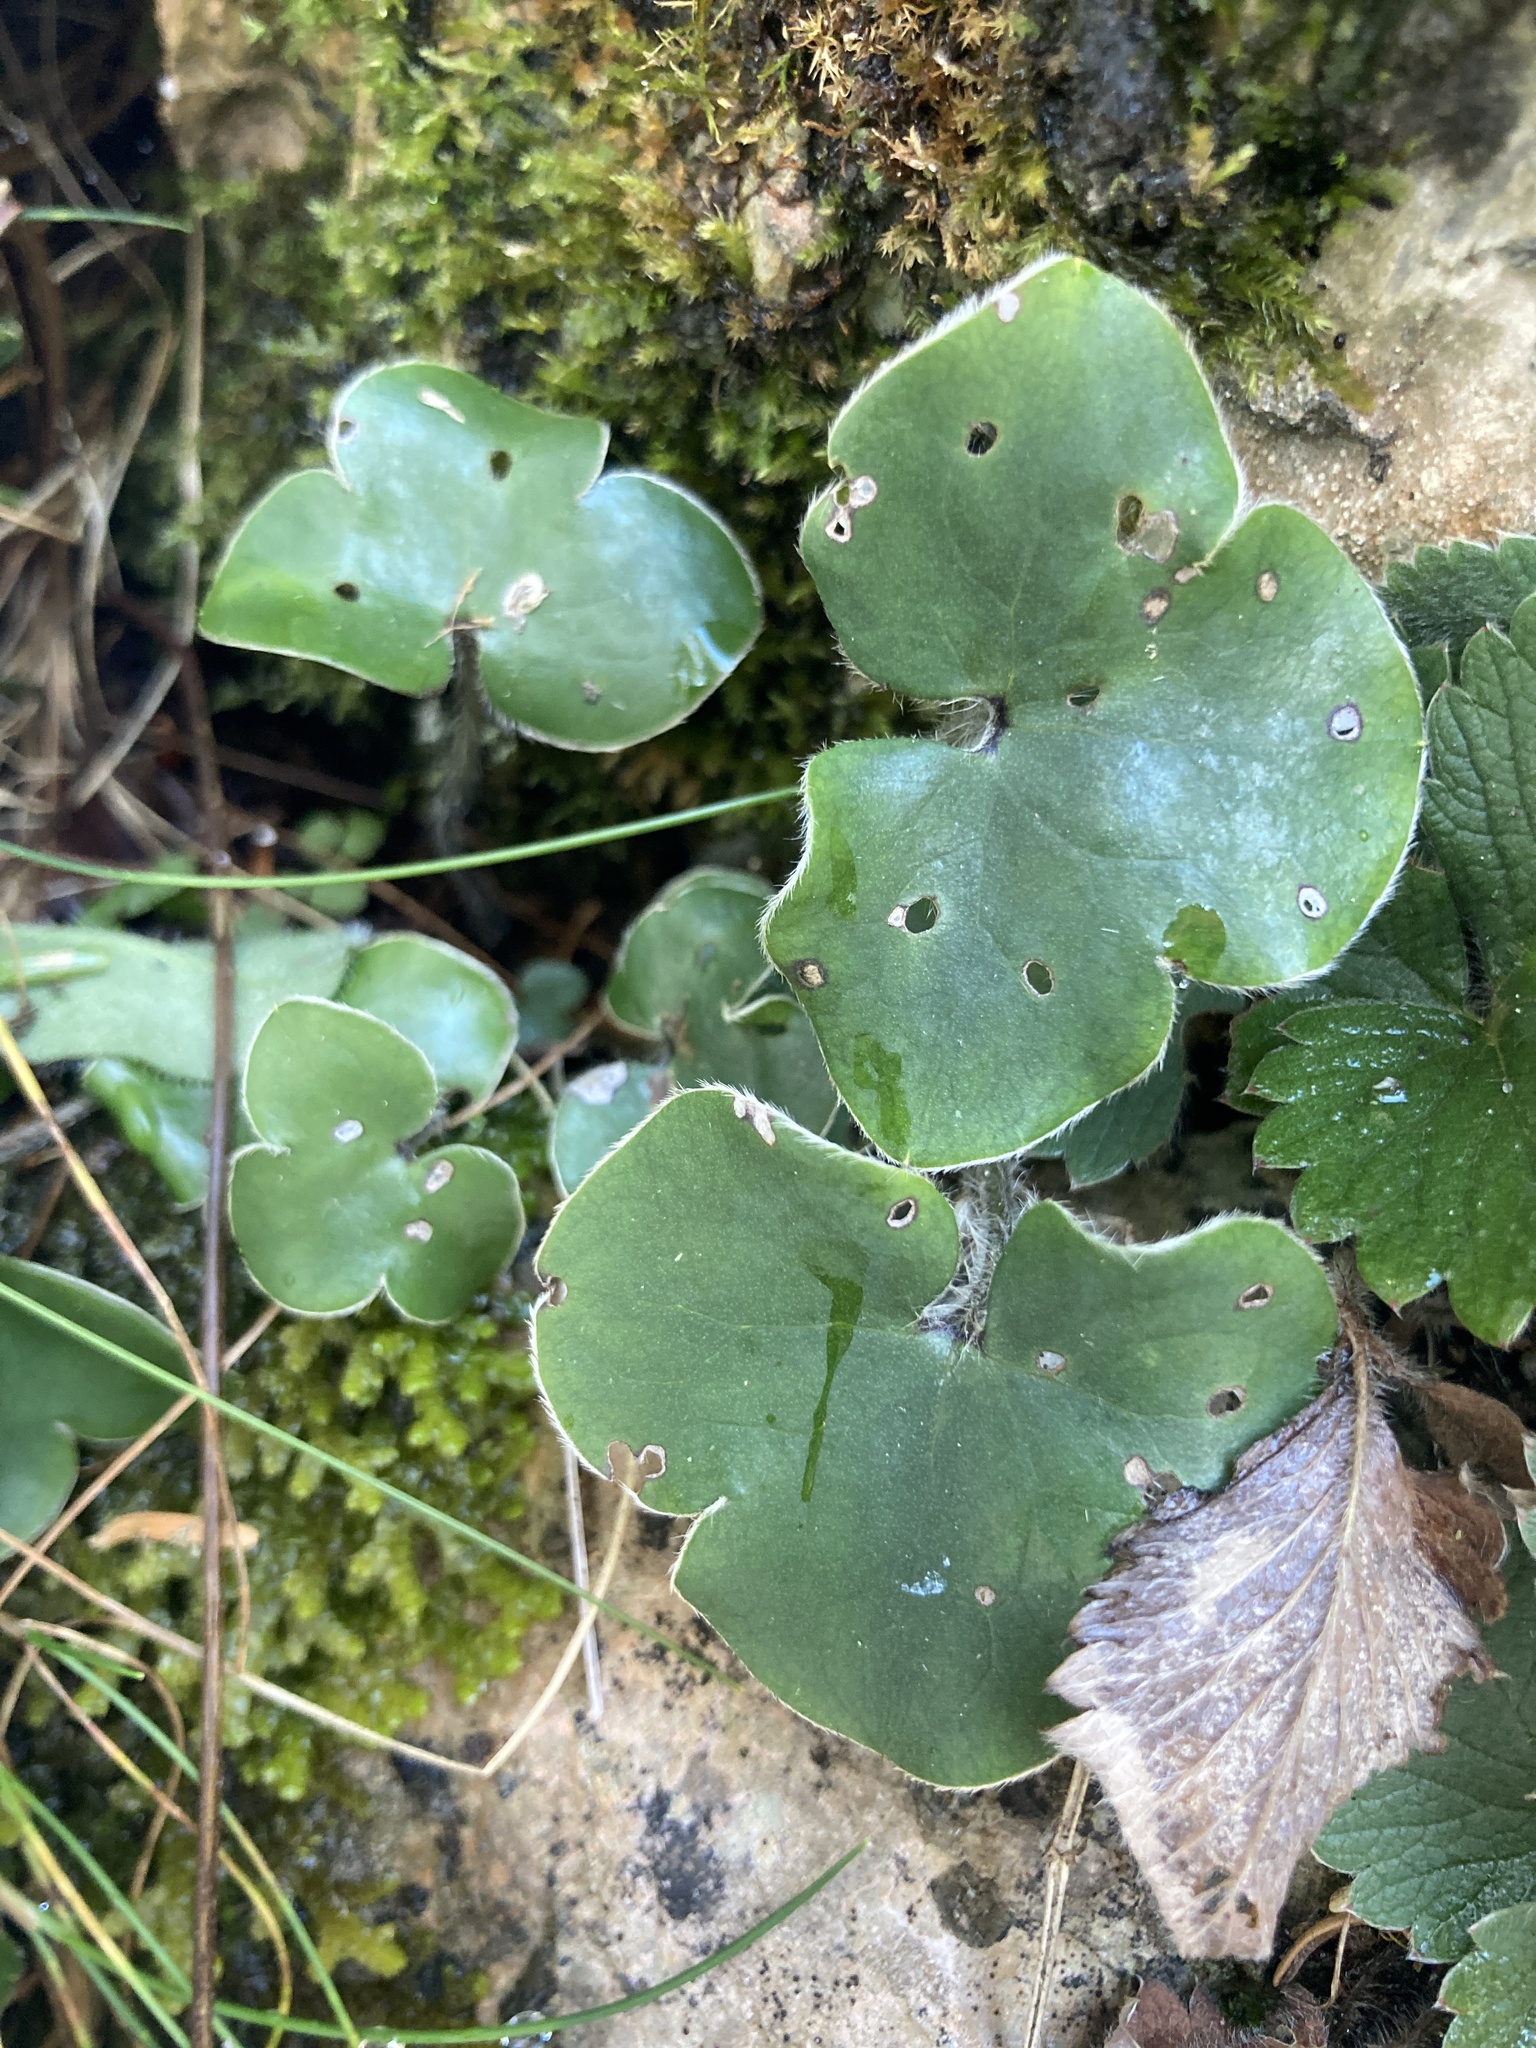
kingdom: Plantae
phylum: Tracheophyta
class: Magnoliopsida
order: Ranunculales
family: Ranunculaceae
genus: Hepatica
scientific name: Hepatica nobilis
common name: Liverleaf
